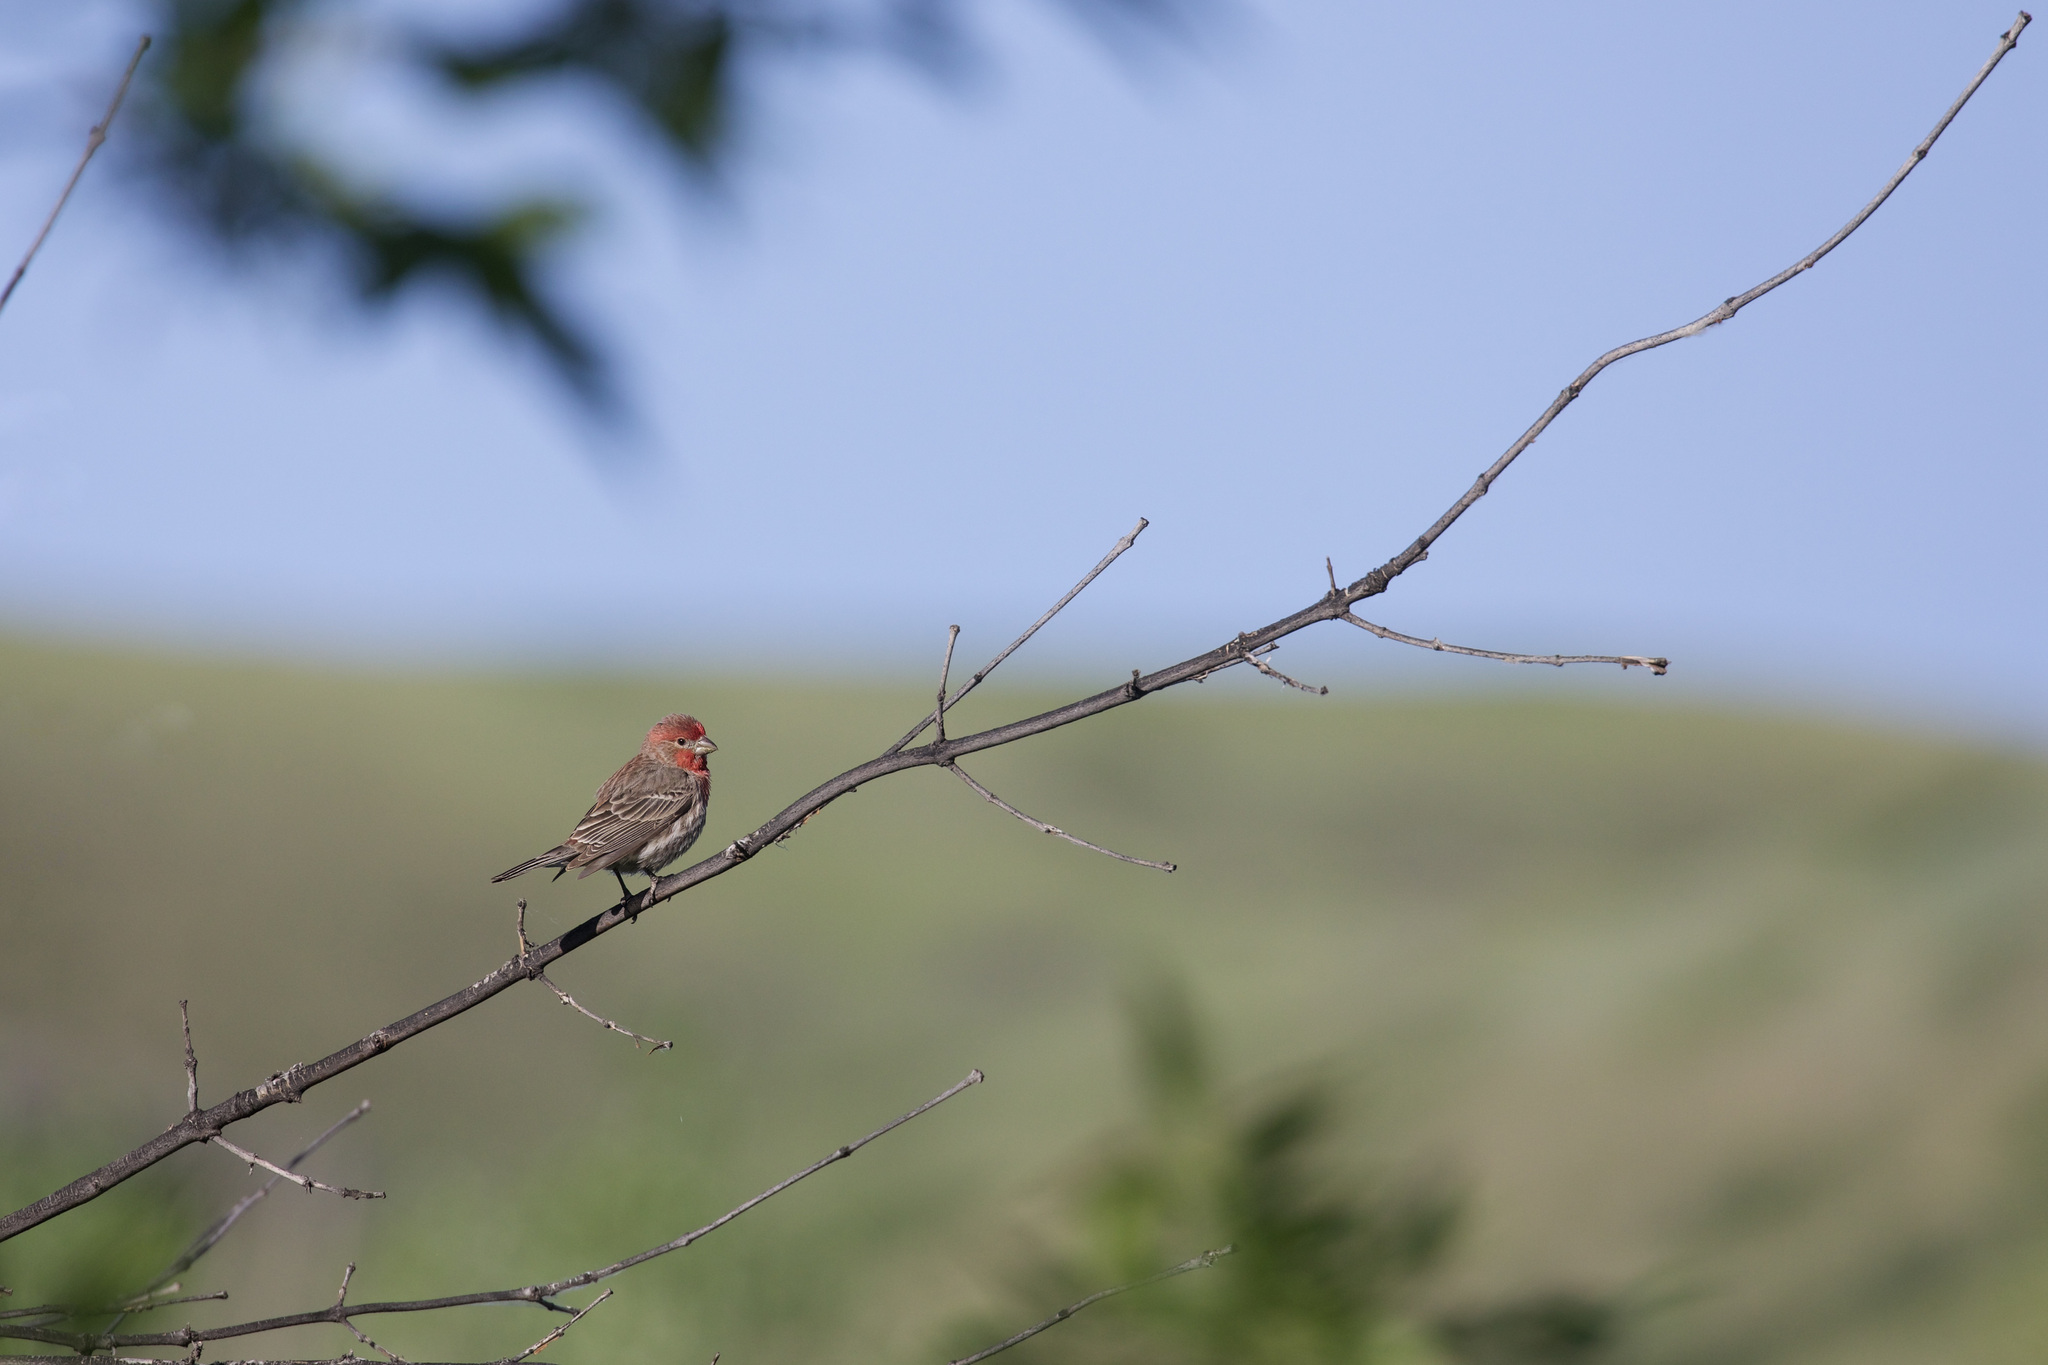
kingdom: Animalia
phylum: Chordata
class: Aves
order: Passeriformes
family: Fringillidae
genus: Haemorhous
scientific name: Haemorhous mexicanus
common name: House finch
